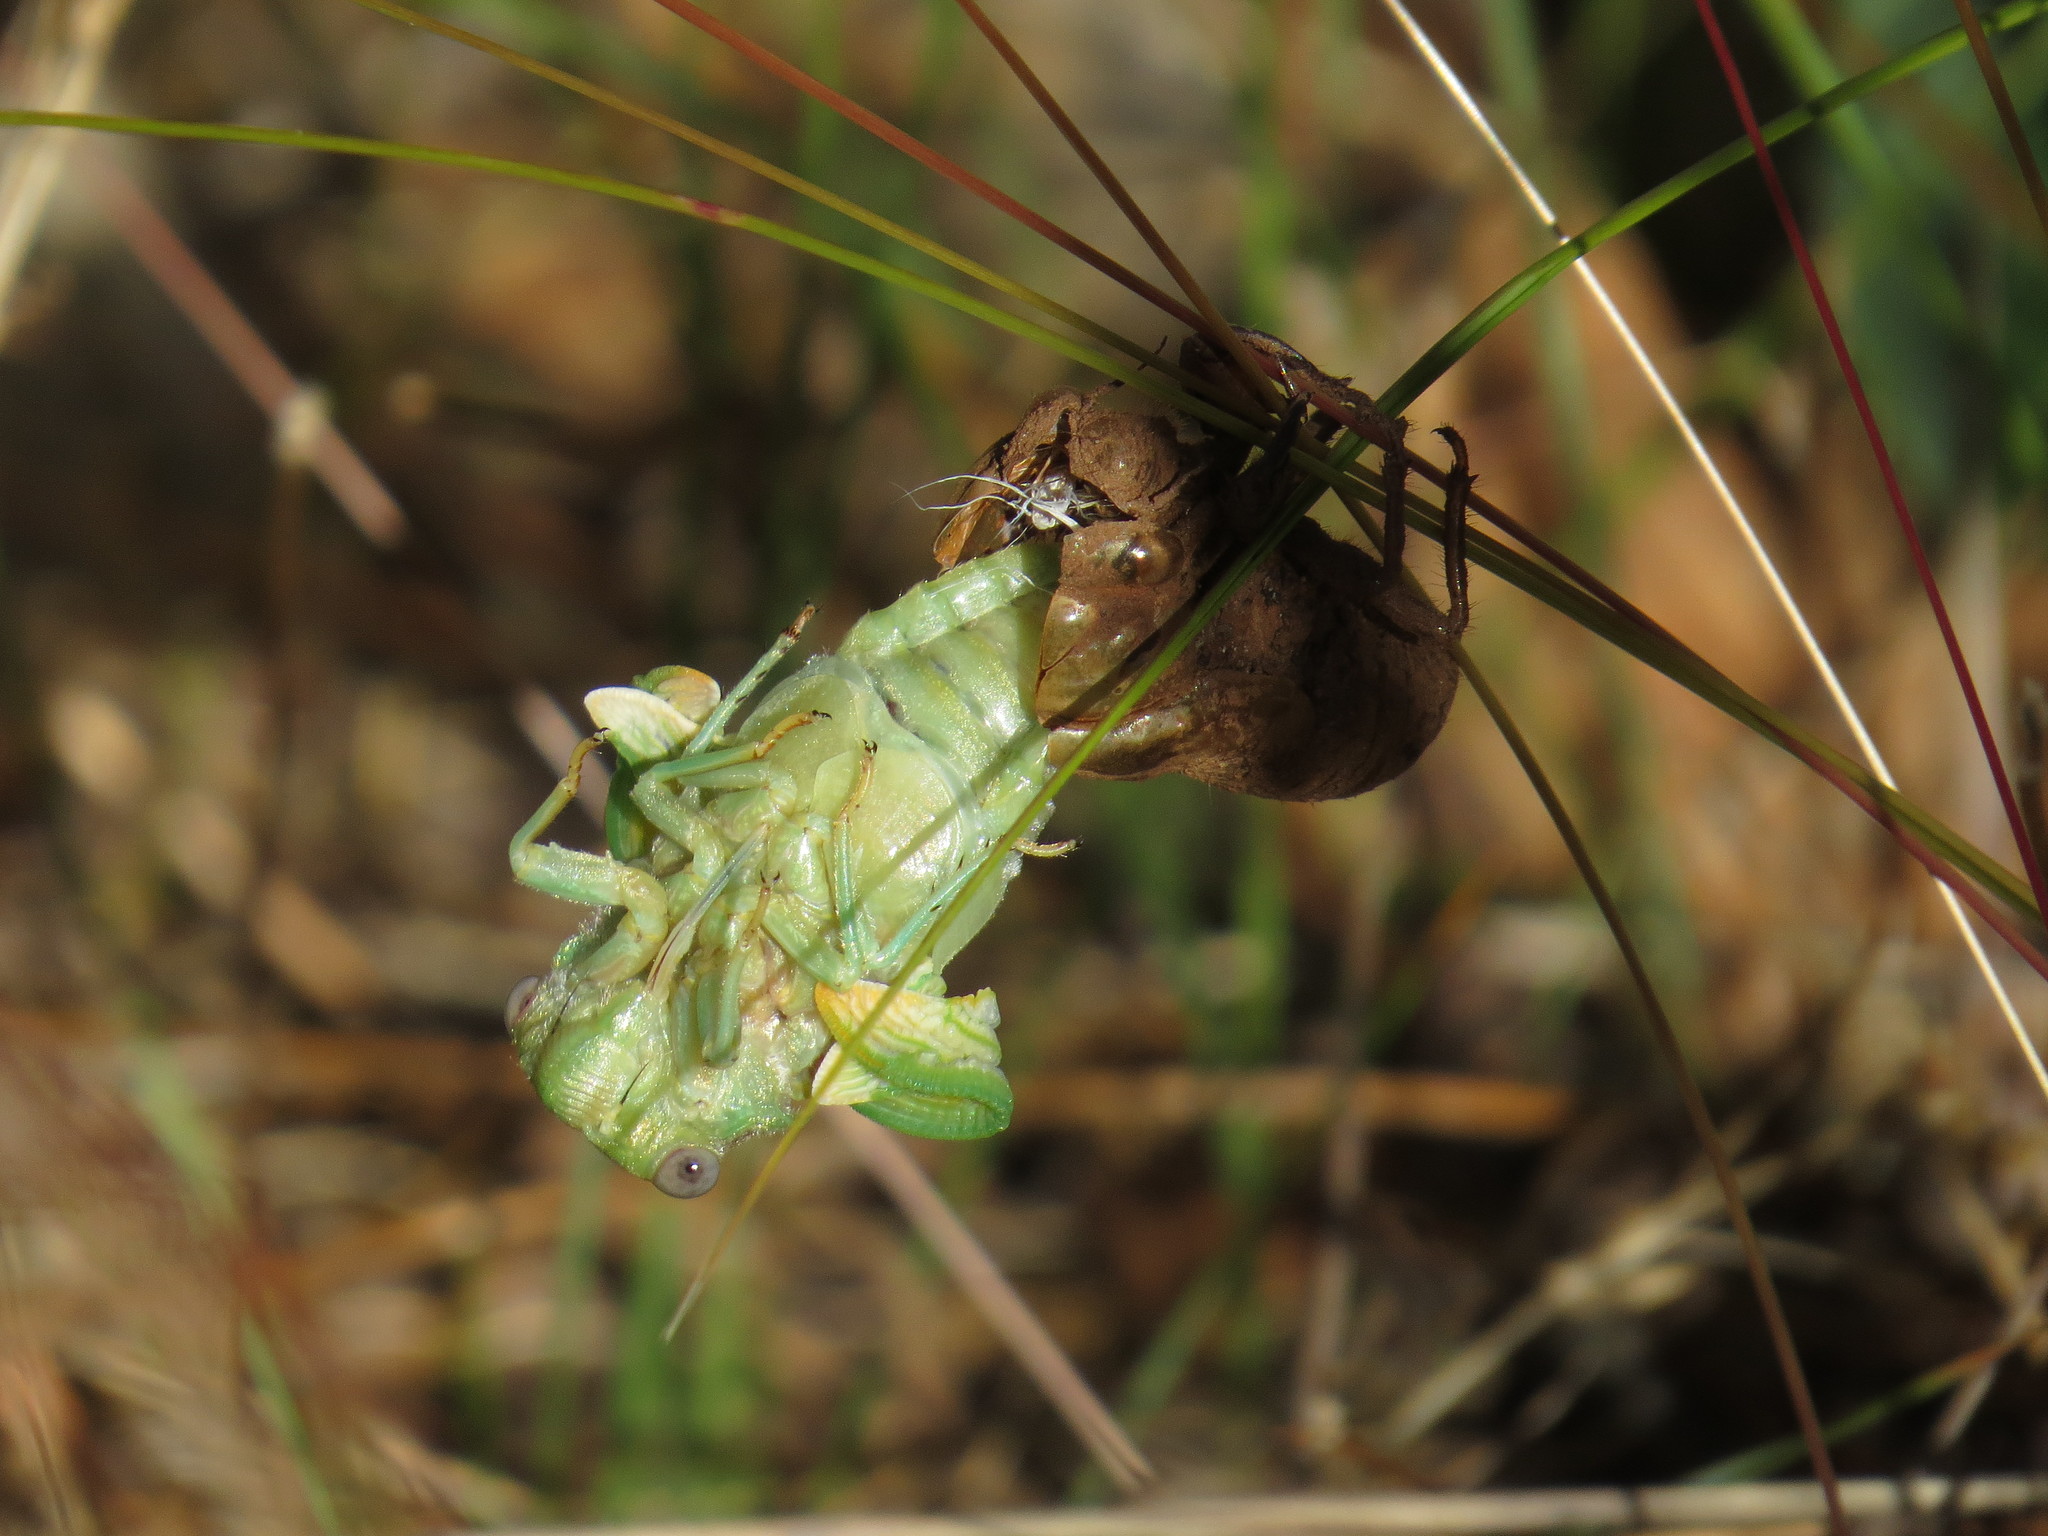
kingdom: Animalia
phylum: Arthropoda
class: Insecta
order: Hemiptera
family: Cicadidae
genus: Lyristes
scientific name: Lyristes plebejus
